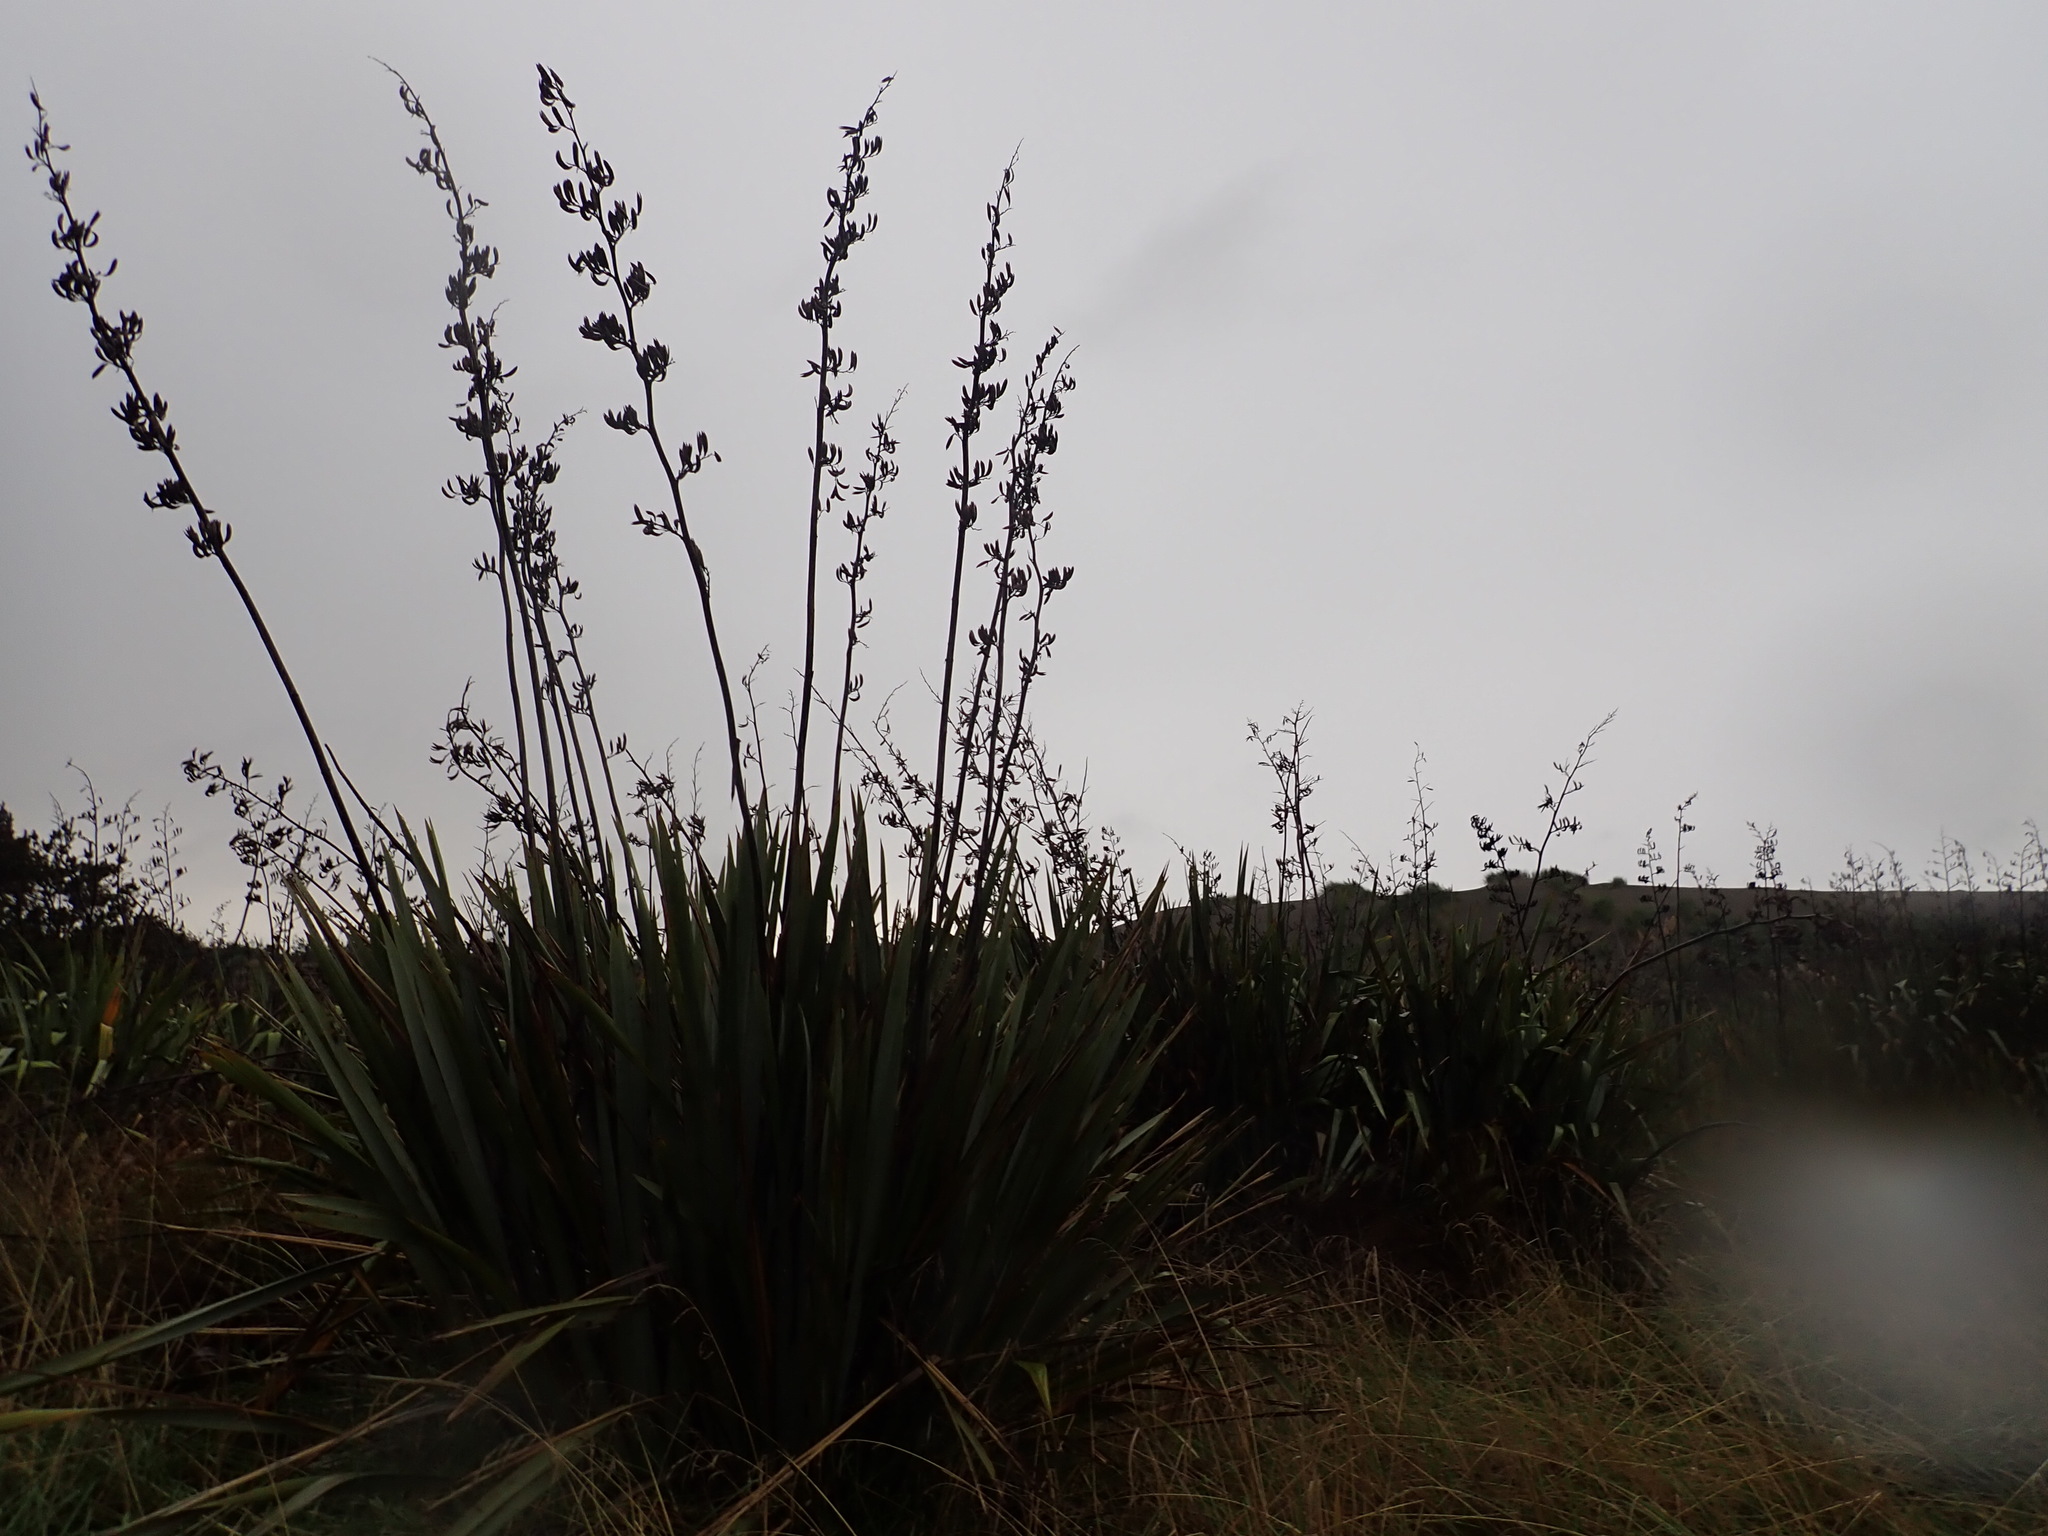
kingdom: Plantae
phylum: Tracheophyta
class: Liliopsida
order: Asparagales
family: Asphodelaceae
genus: Phormium
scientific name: Phormium tenax
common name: New zealand flax
